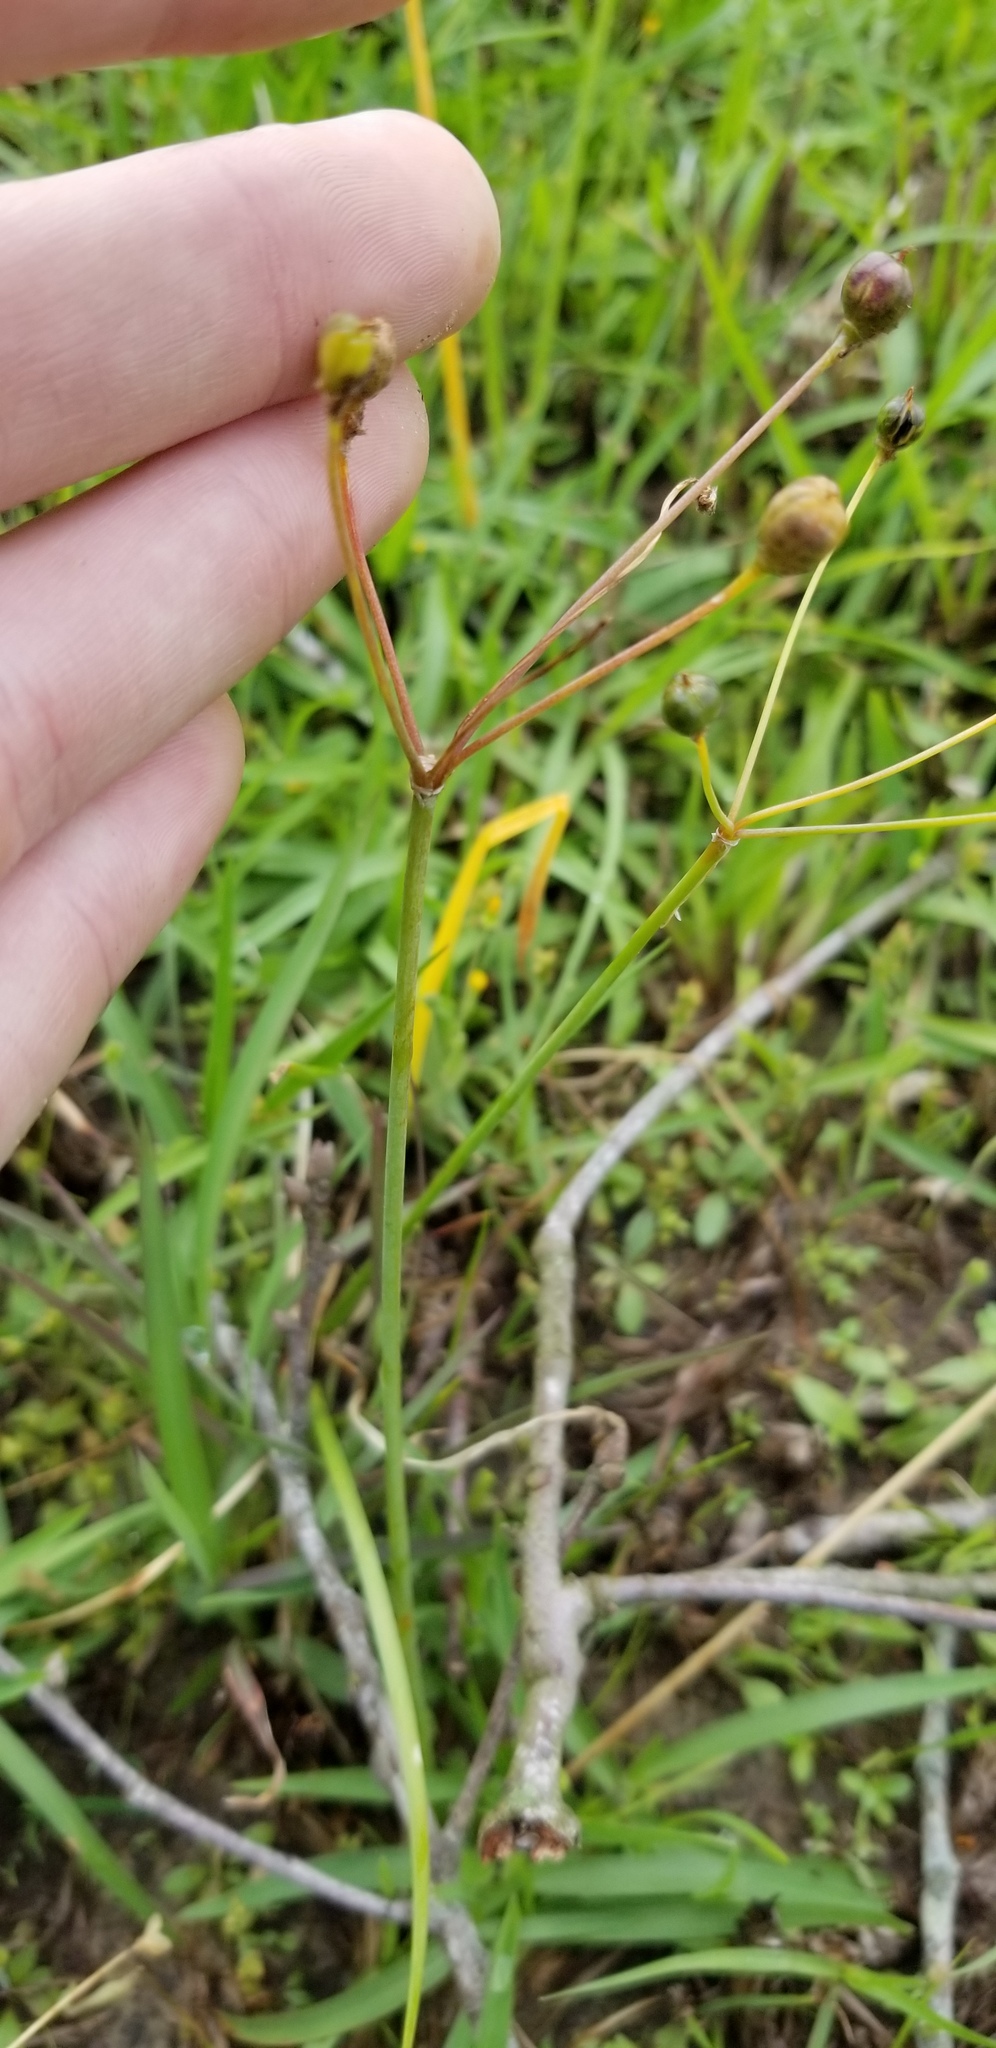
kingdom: Plantae
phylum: Tracheophyta
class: Liliopsida
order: Asparagales
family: Amaryllidaceae
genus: Nothoscordum
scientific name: Nothoscordum bivalve
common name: Crow-poison
